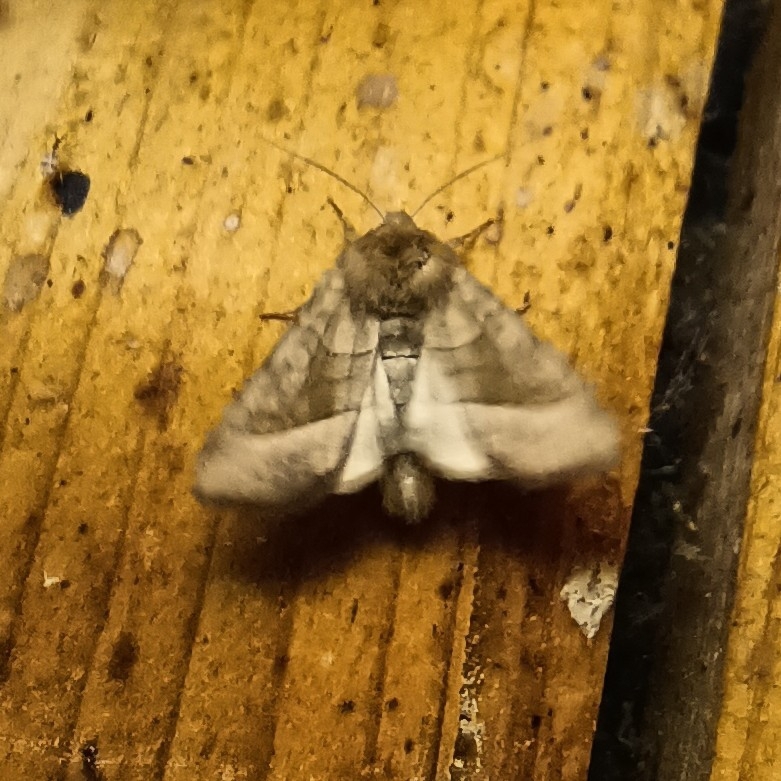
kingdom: Animalia
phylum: Arthropoda
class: Insecta
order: Lepidoptera
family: Noctuidae
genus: Hydraecia
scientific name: Hydraecia micacea
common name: Rosy rustic
